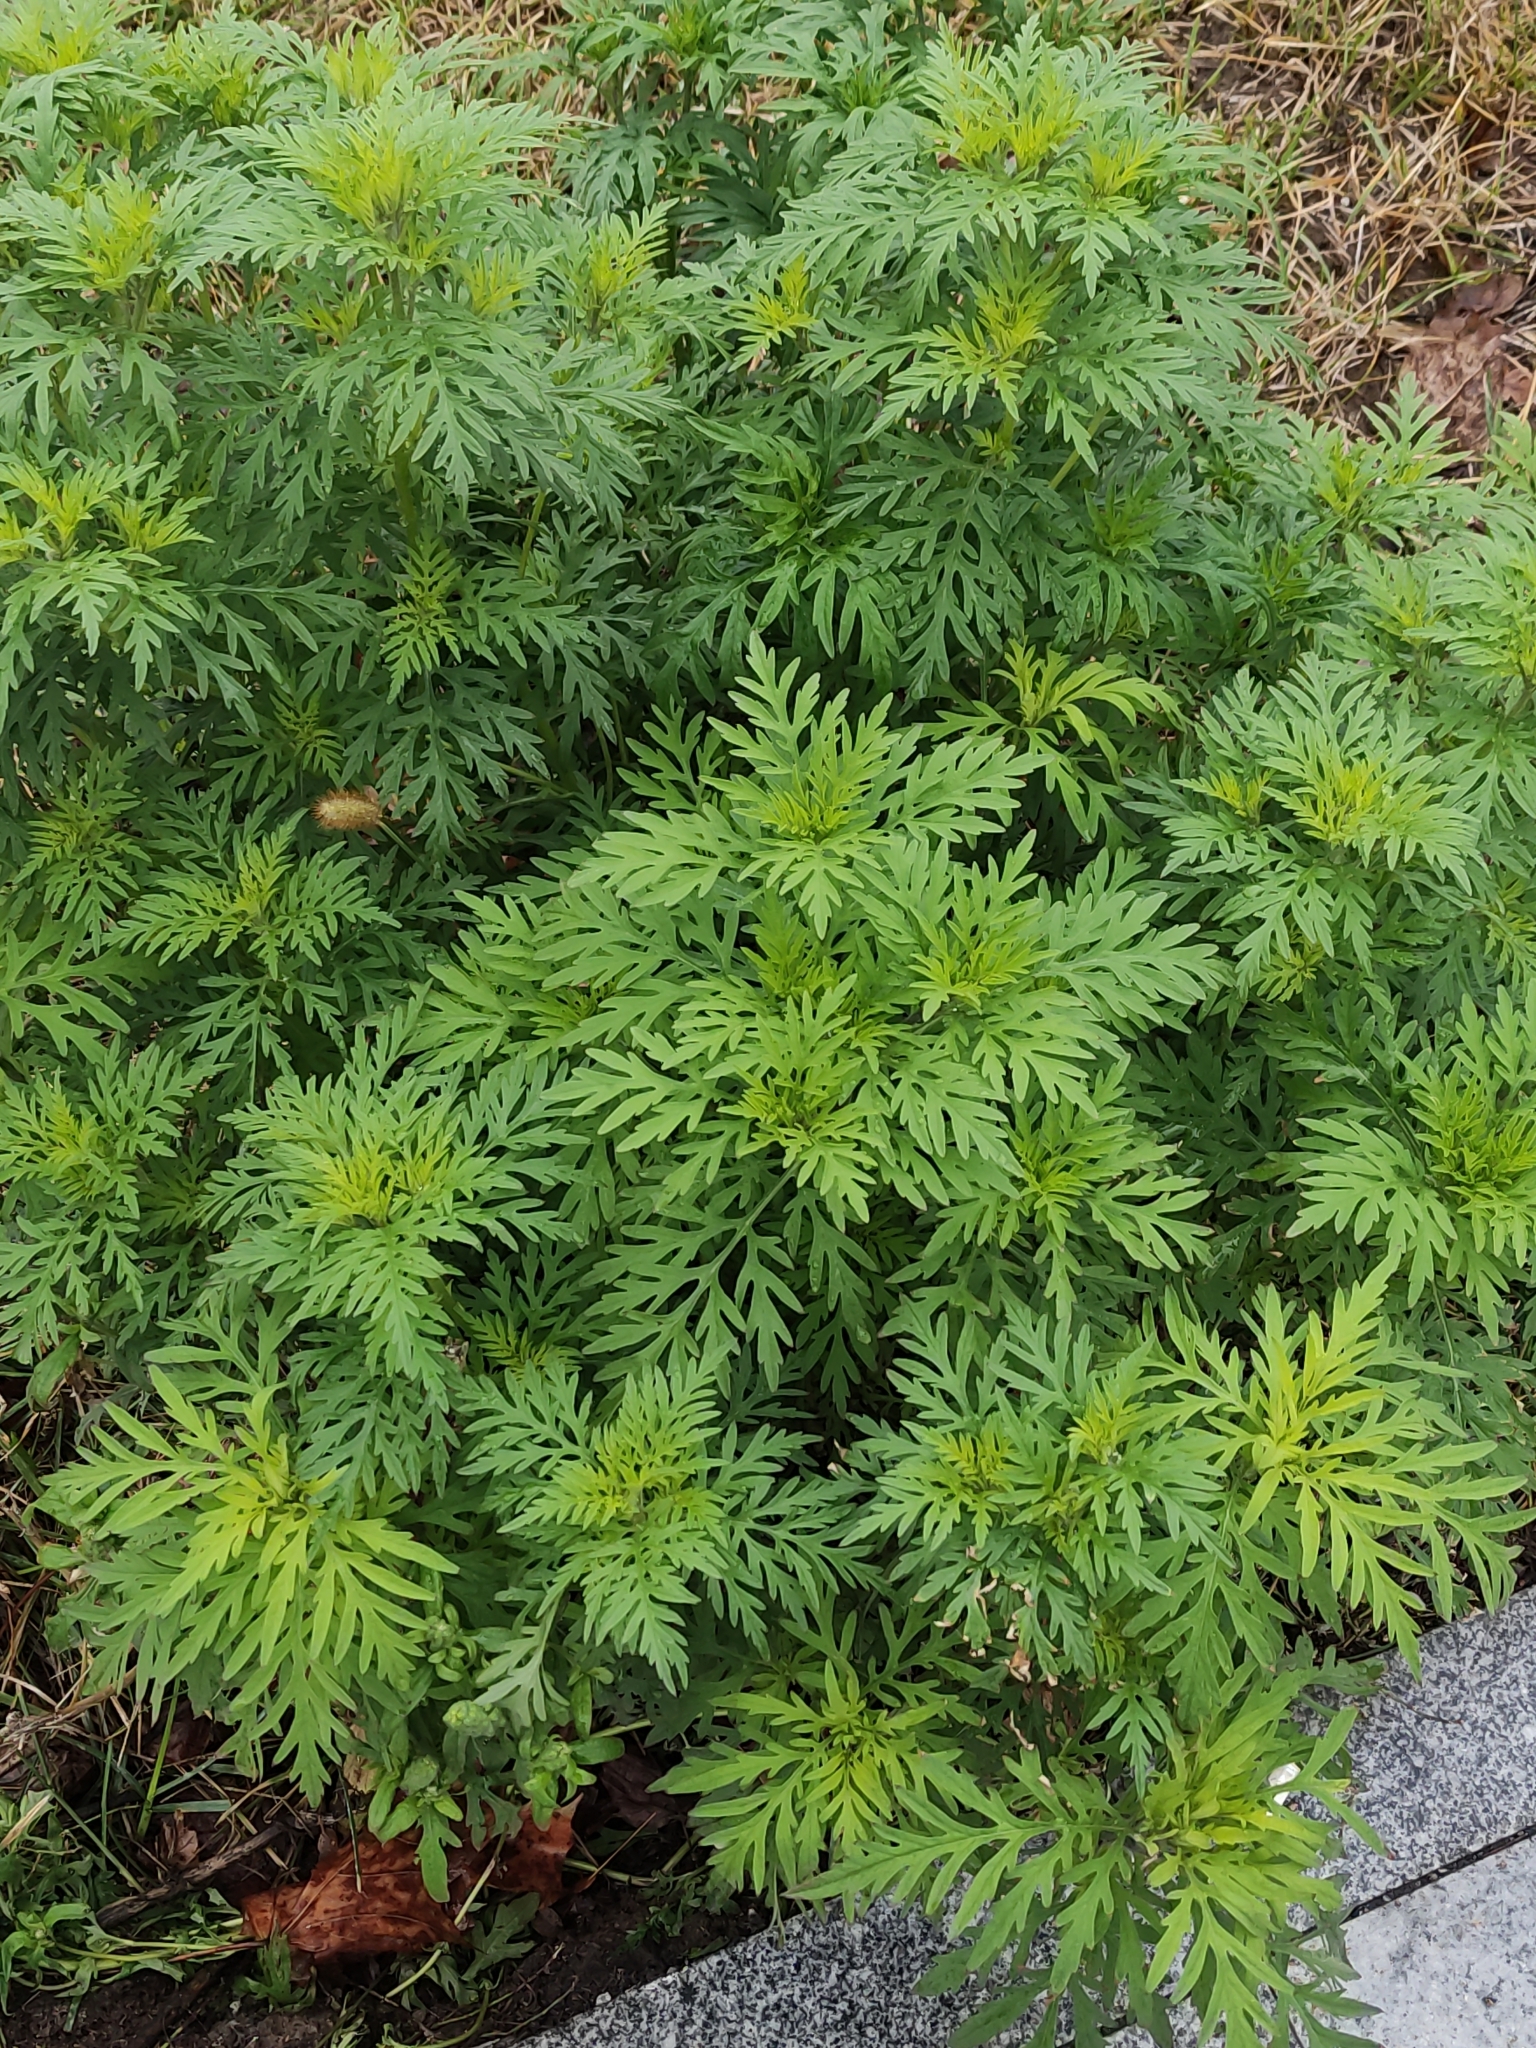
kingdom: Plantae
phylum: Tracheophyta
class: Magnoliopsida
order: Asterales
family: Asteraceae
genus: Ambrosia
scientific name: Ambrosia artemisiifolia
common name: Annual ragweed
